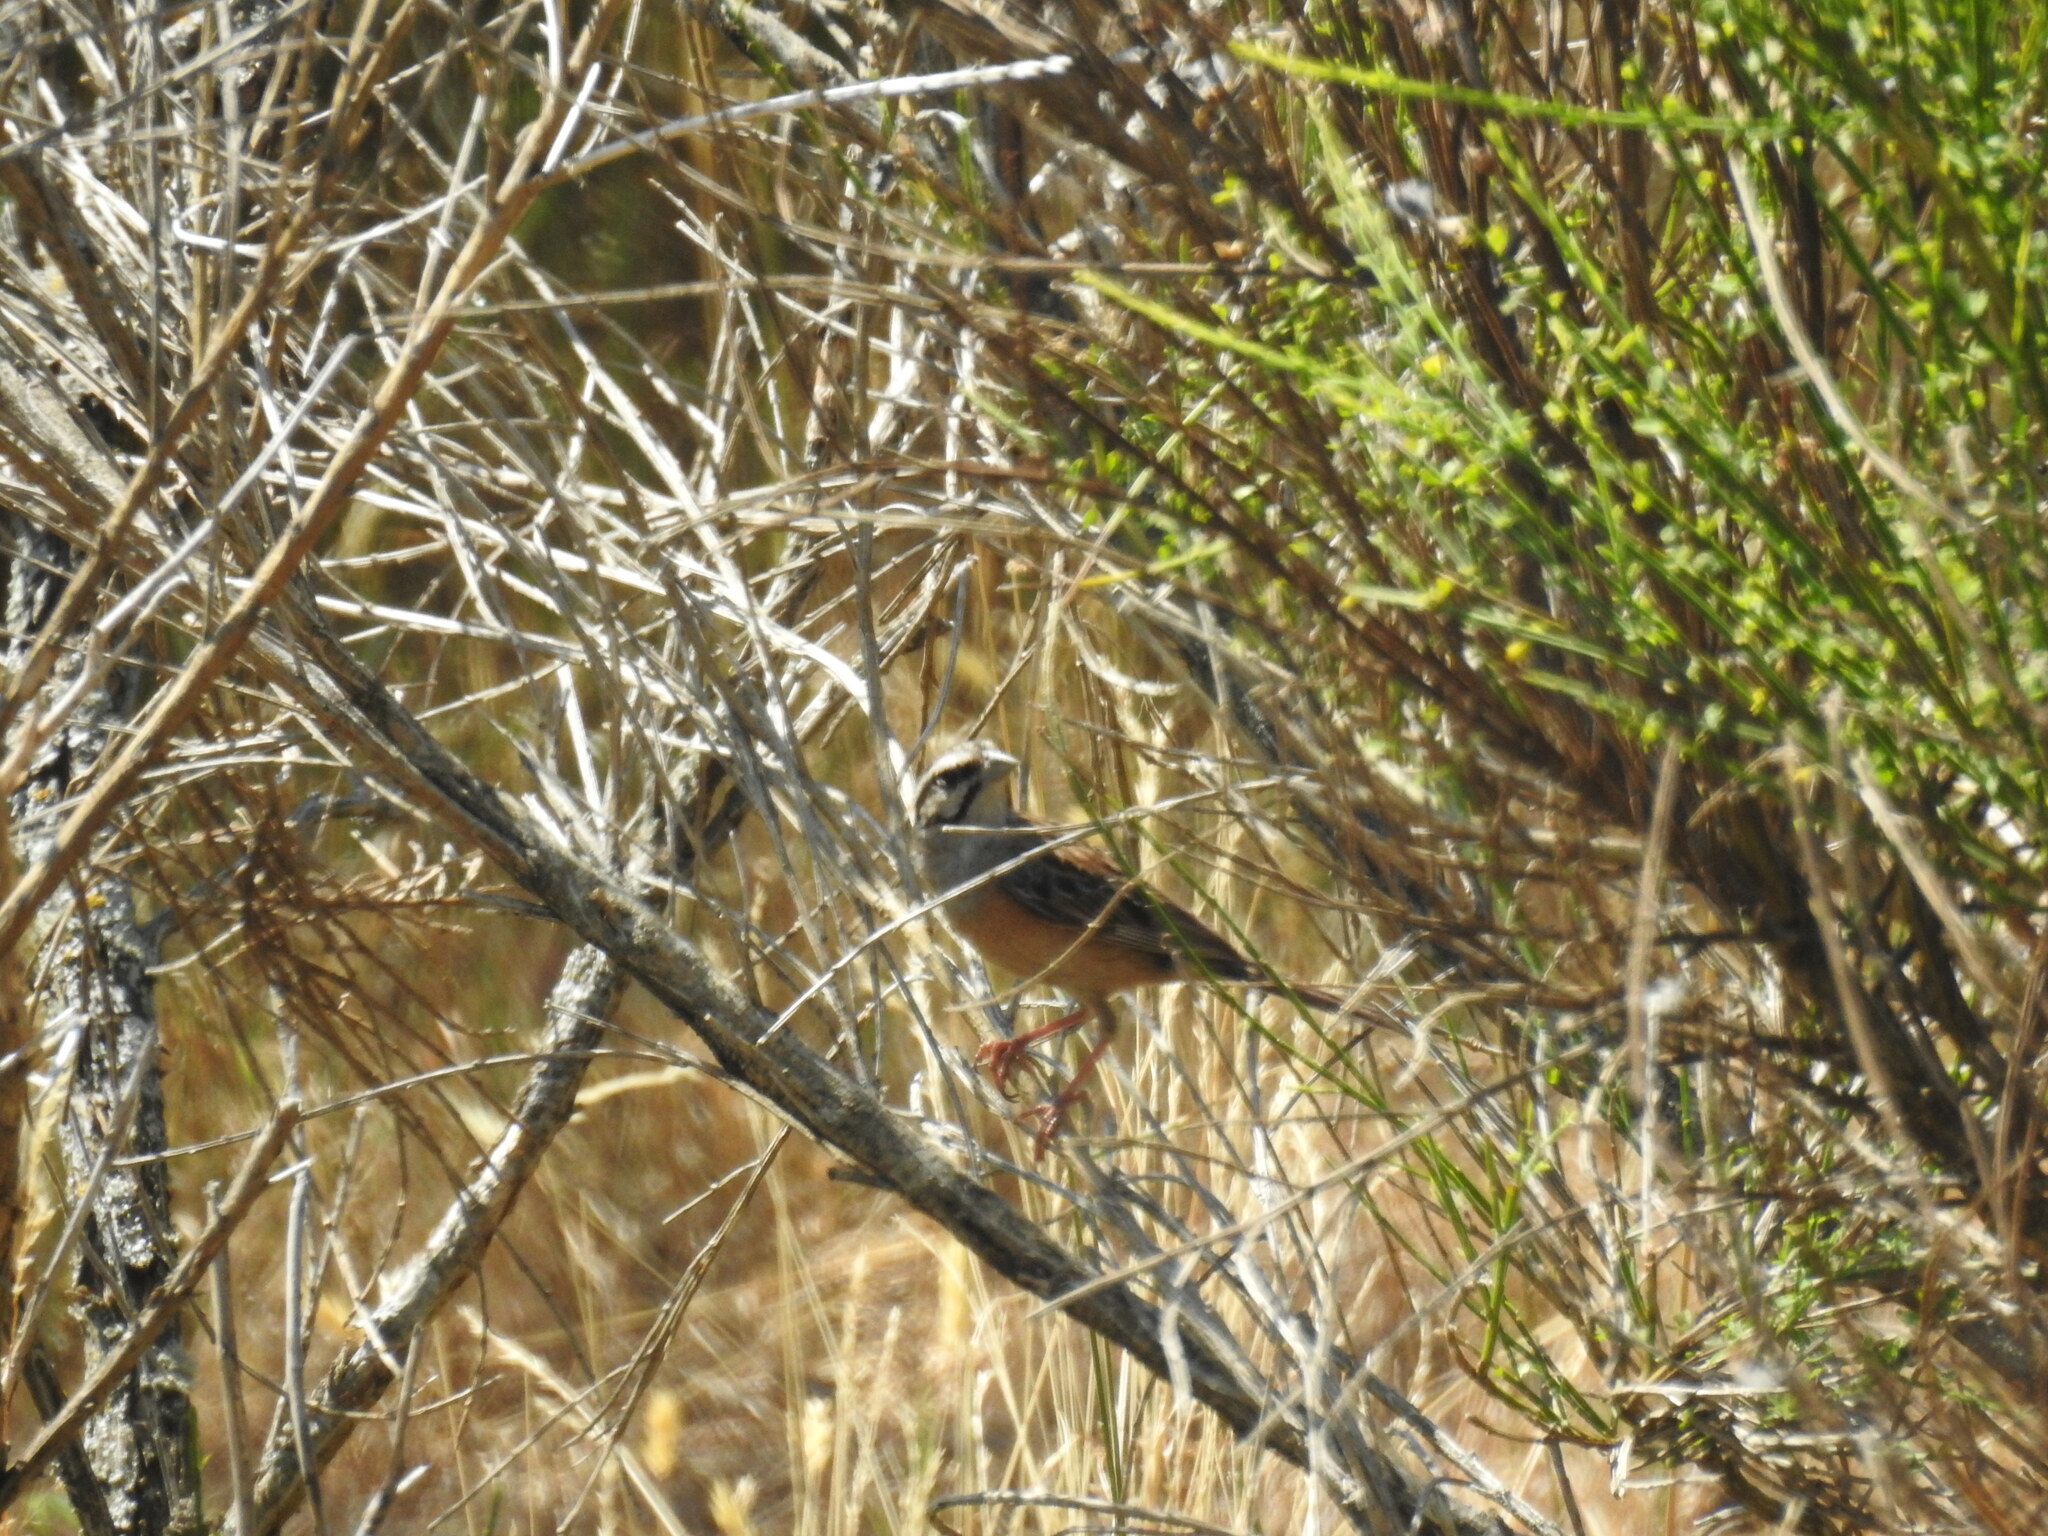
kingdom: Animalia
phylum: Chordata
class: Aves
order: Passeriformes
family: Emberizidae
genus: Emberiza
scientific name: Emberiza cia
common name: Rock bunting
